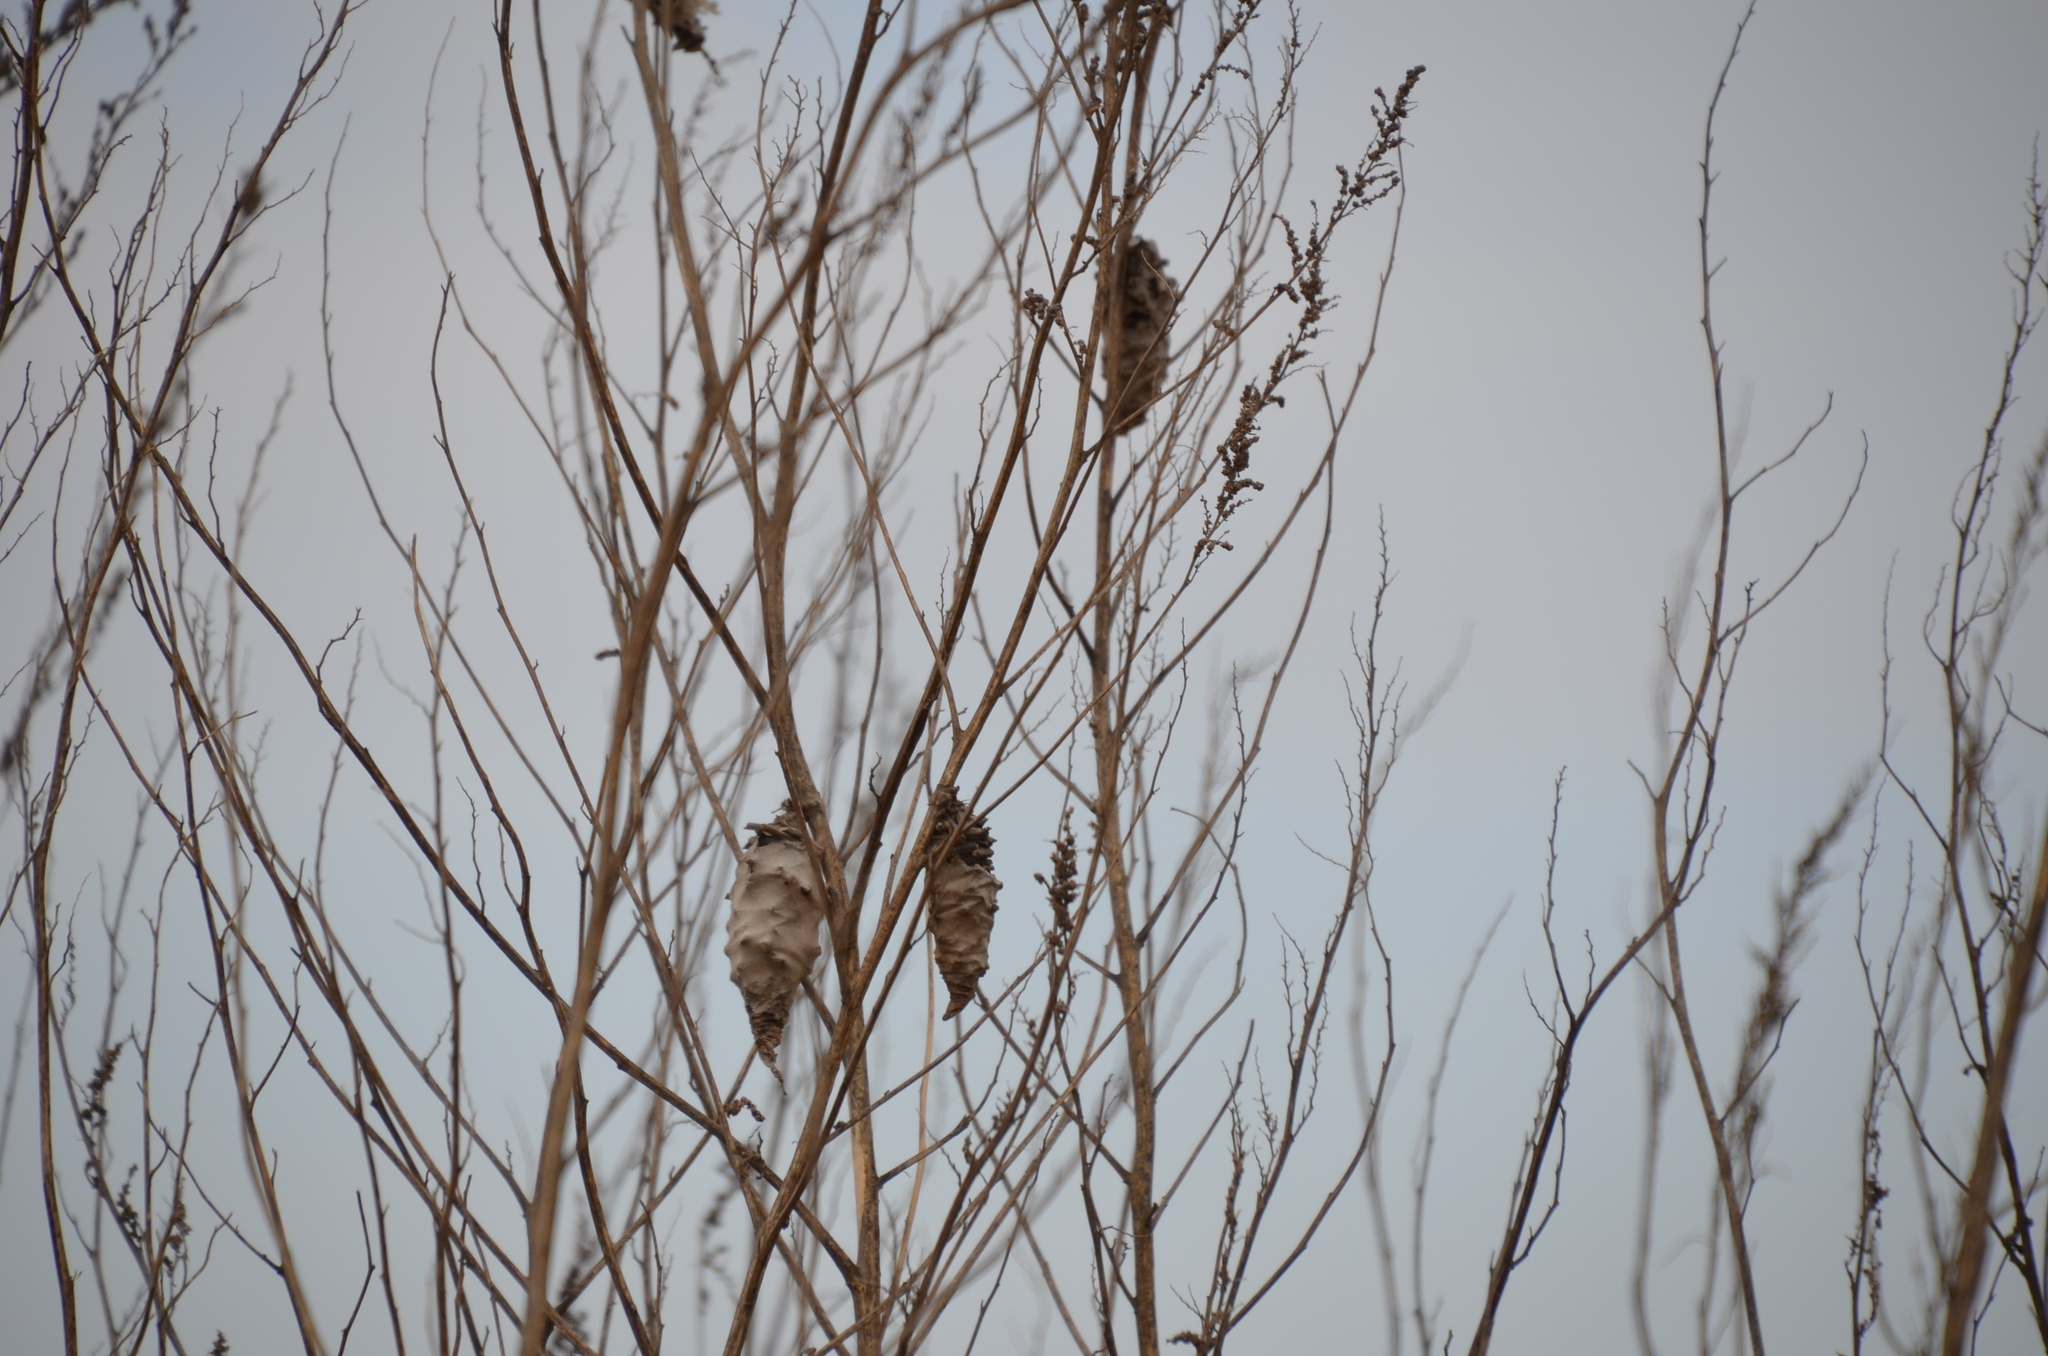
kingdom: Animalia
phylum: Arthropoda
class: Insecta
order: Lepidoptera
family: Psychidae
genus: Oiketicus
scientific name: Oiketicus
